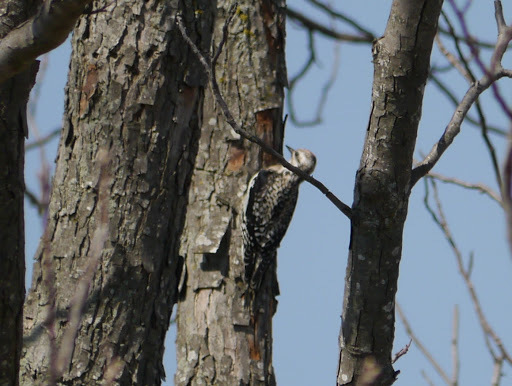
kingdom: Animalia
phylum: Chordata
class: Aves
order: Piciformes
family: Picidae
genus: Sphyrapicus
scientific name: Sphyrapicus varius
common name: Yellow-bellied sapsucker
